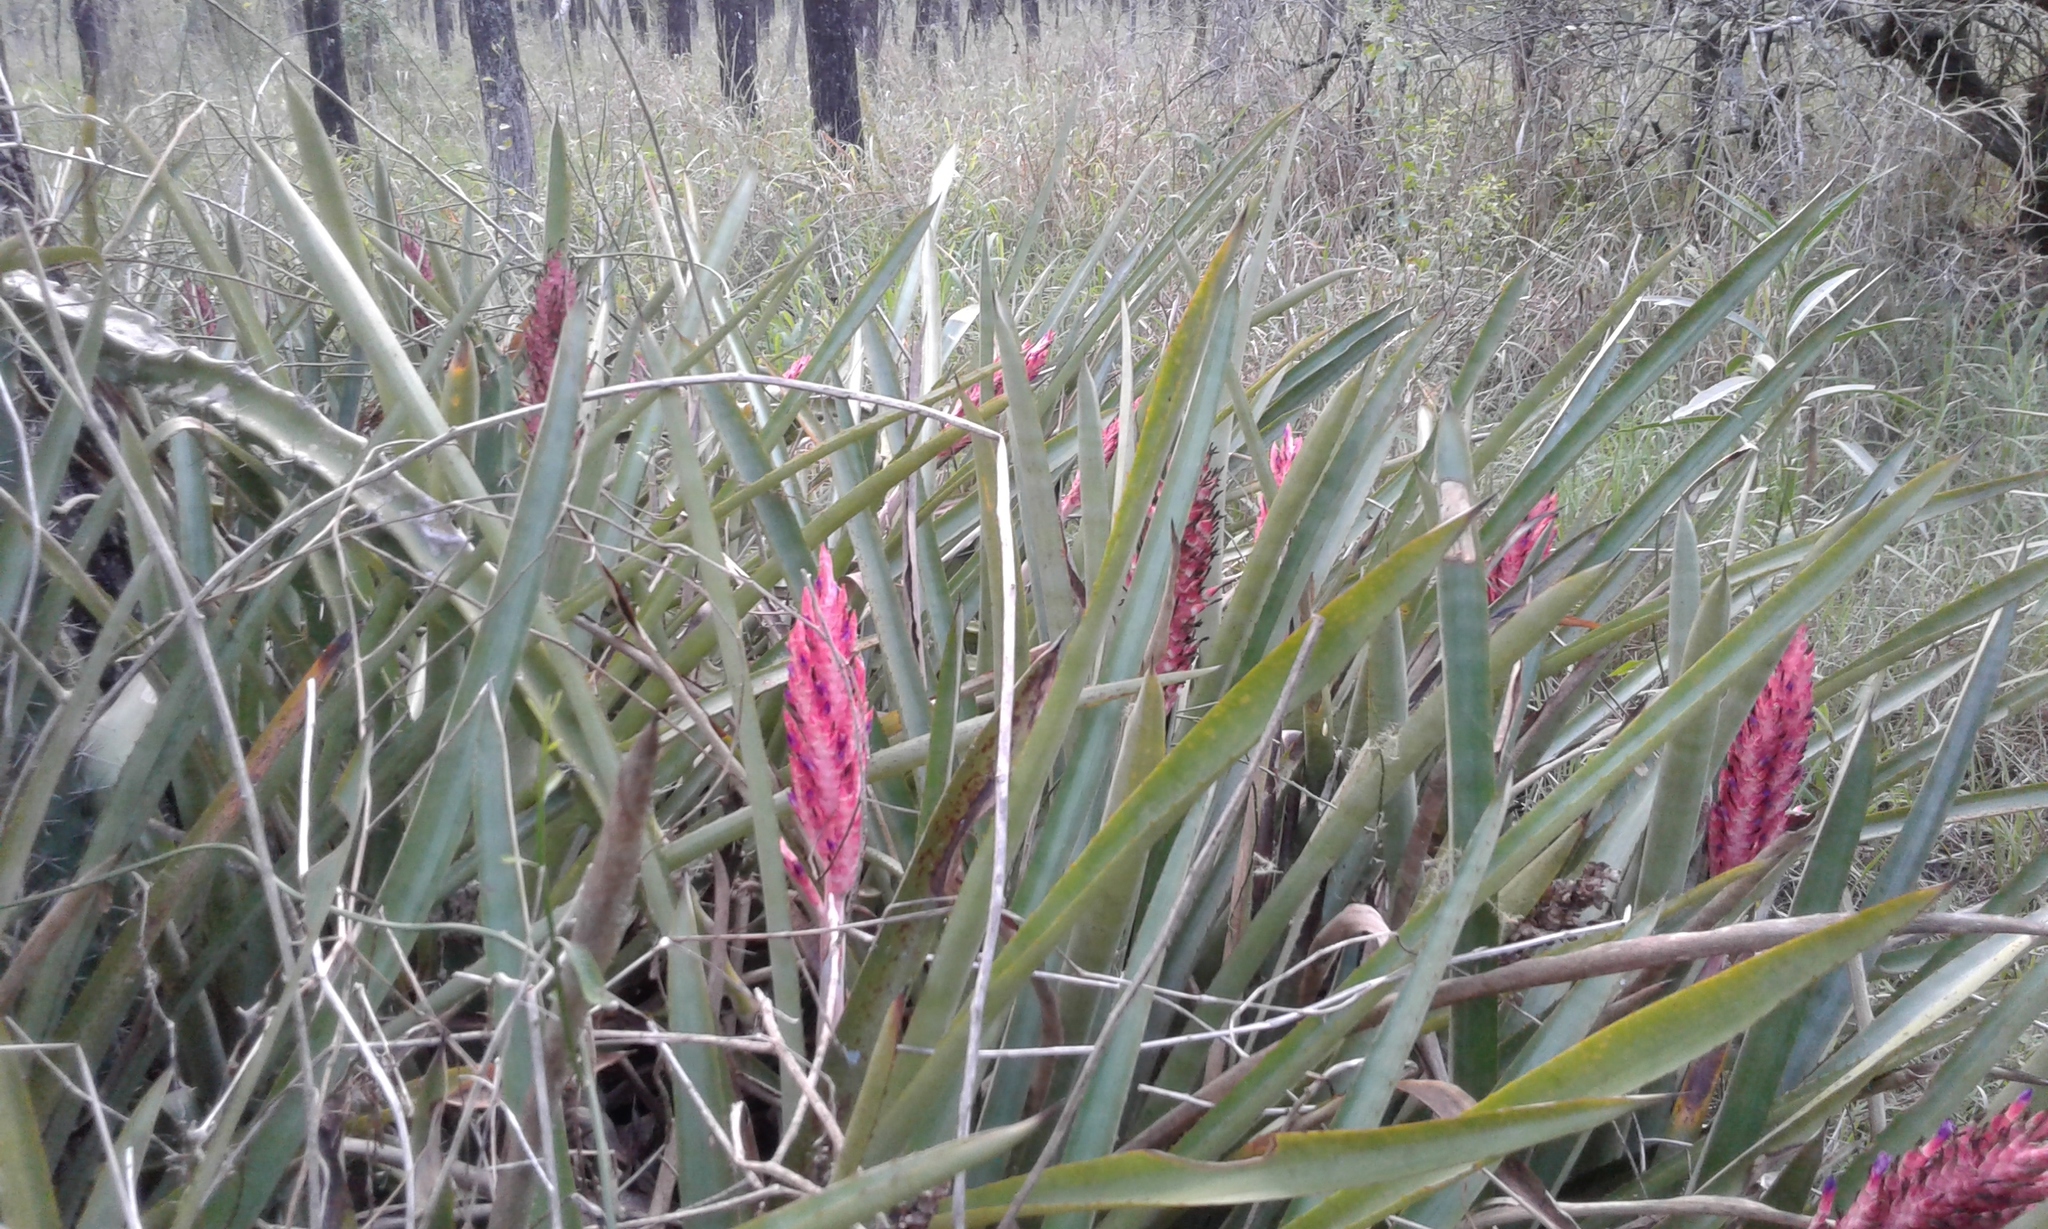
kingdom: Plantae
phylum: Tracheophyta
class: Liliopsida
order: Poales
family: Bromeliaceae
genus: Aechmea
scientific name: Aechmea distichantha
